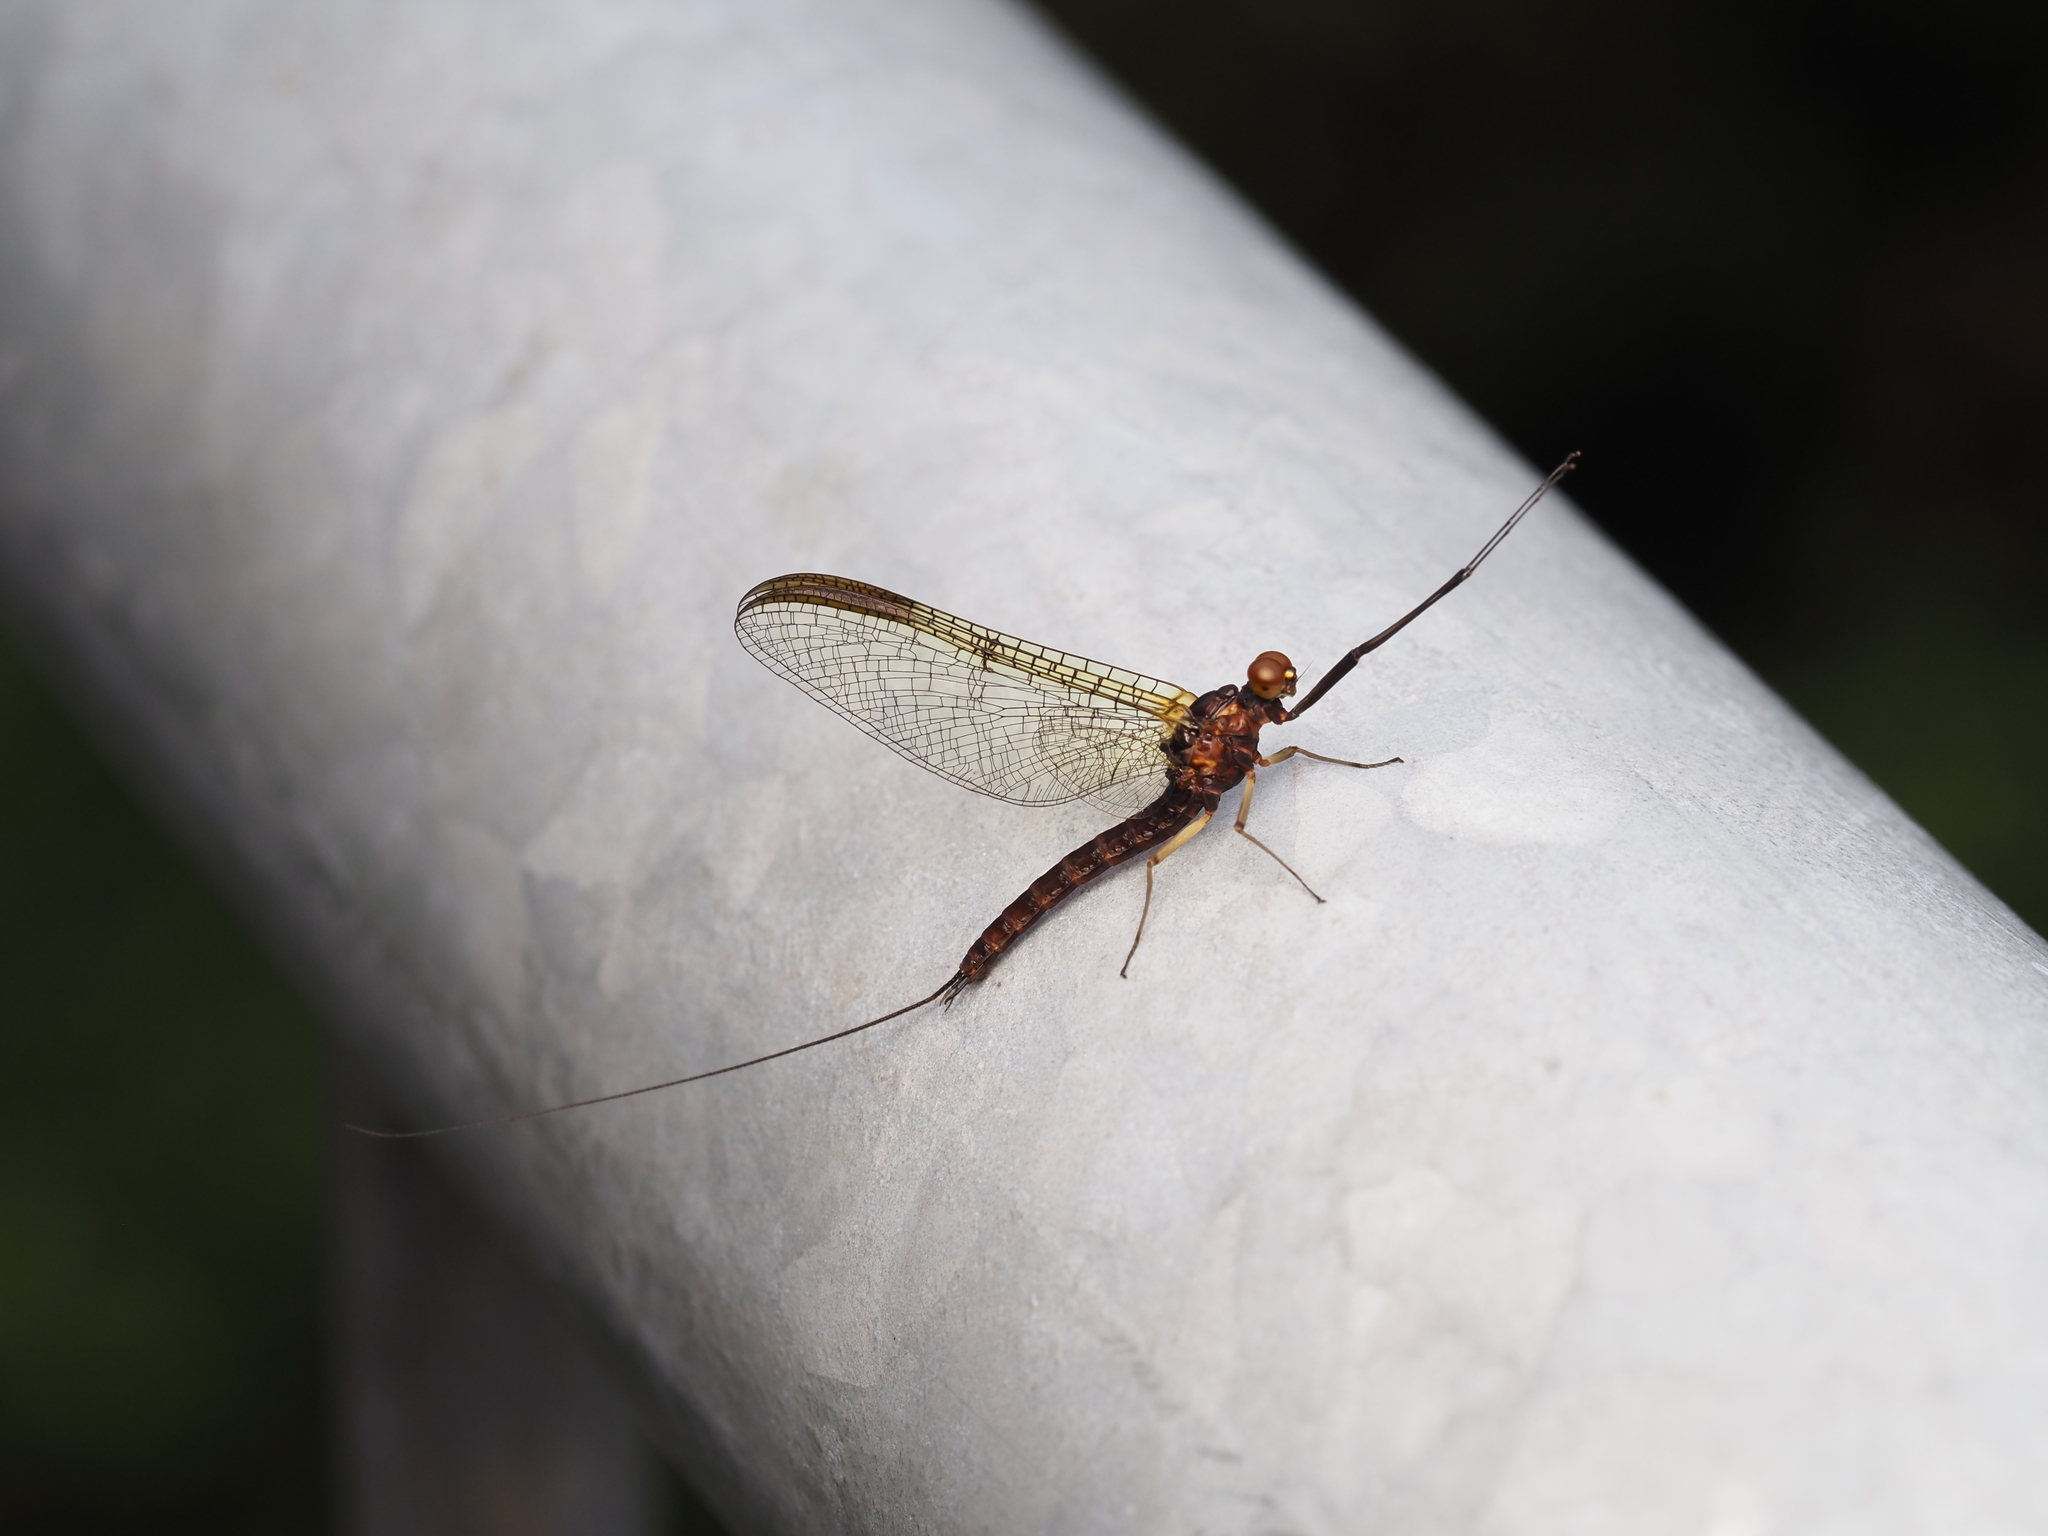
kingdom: Animalia
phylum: Arthropoda
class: Insecta
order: Ephemeroptera
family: Coloburiscidae
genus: Coloburiscus
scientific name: Coloburiscus humeralis
